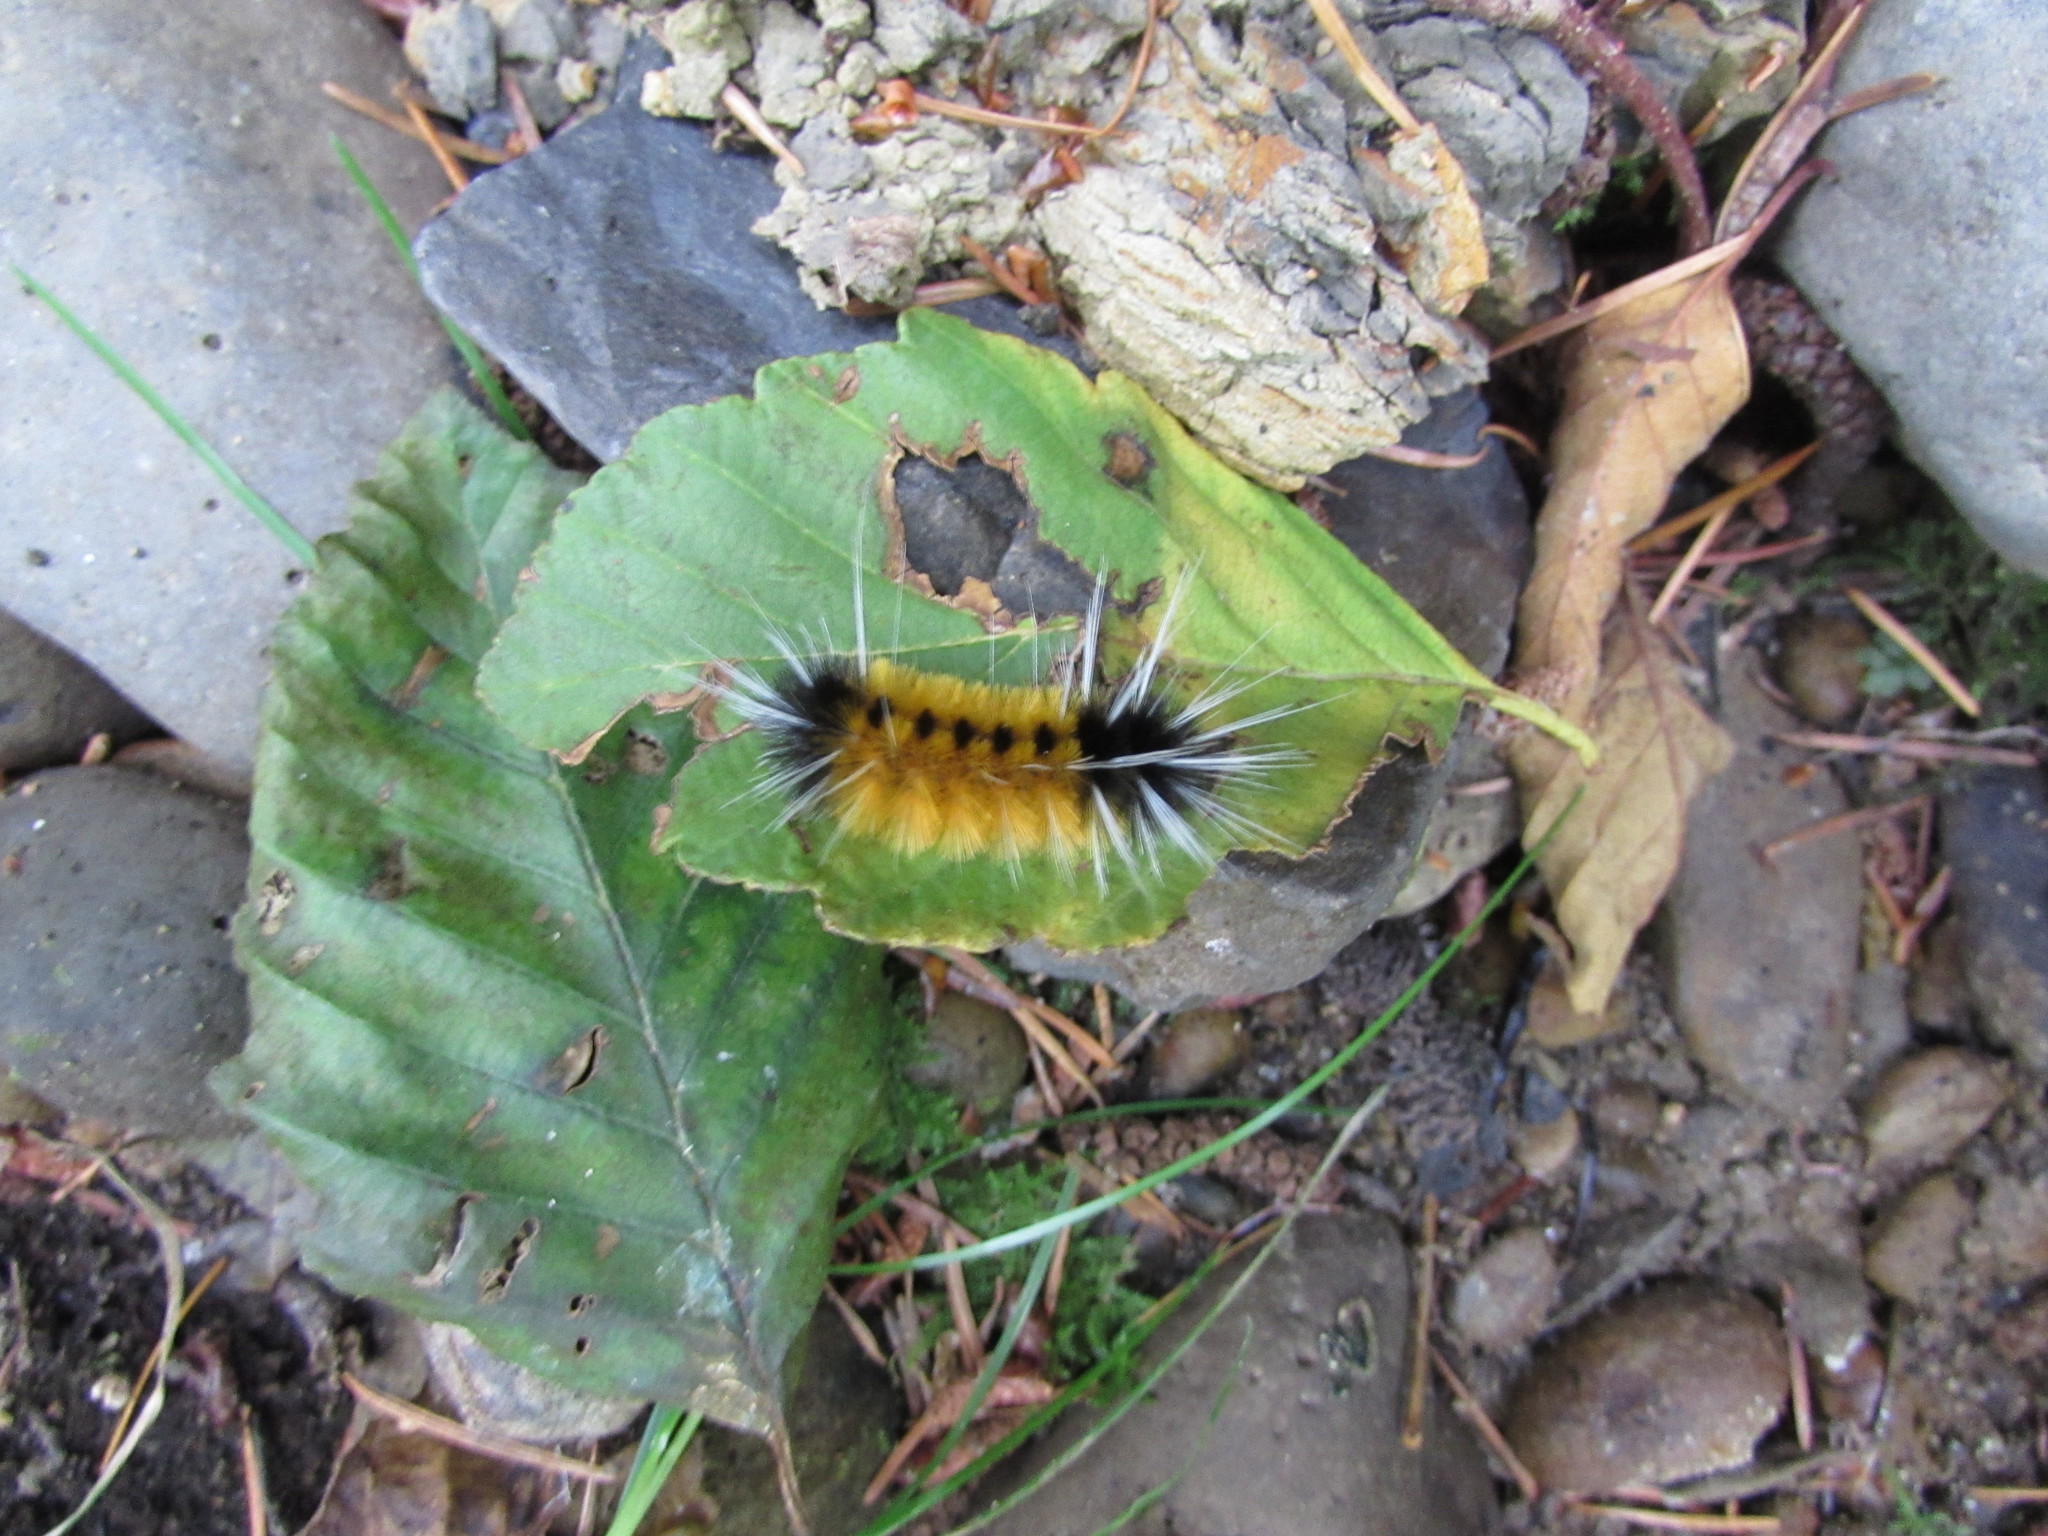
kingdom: Animalia
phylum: Arthropoda
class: Insecta
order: Lepidoptera
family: Erebidae
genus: Lophocampa
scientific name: Lophocampa maculata
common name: Spotted tussock moth
